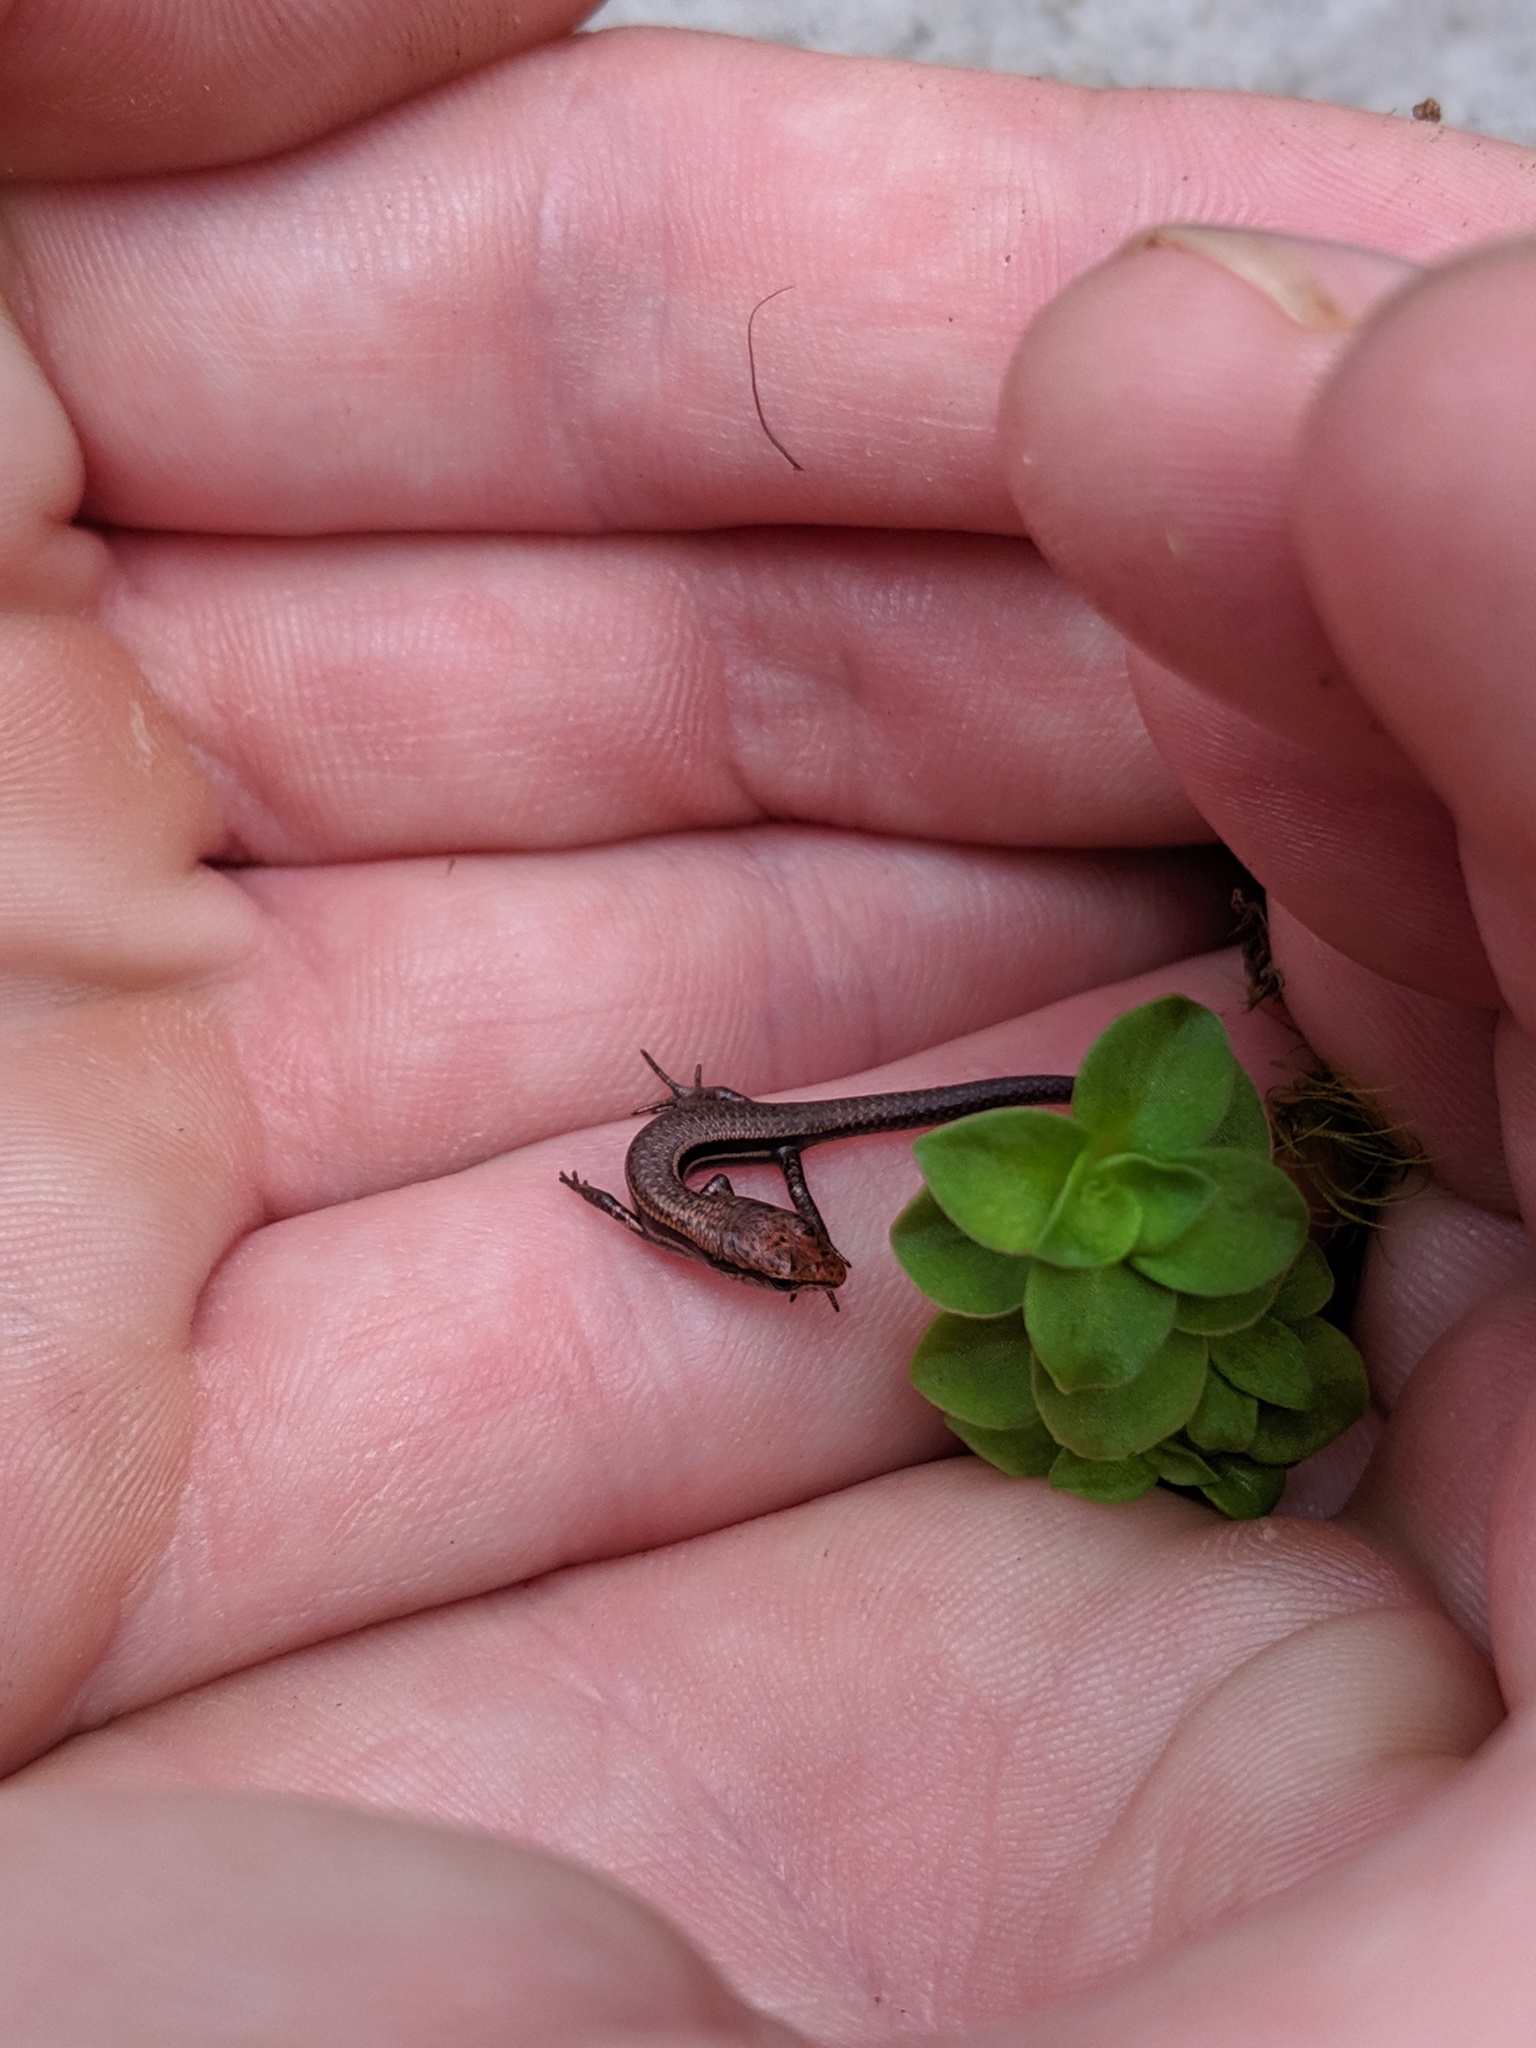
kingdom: Animalia
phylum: Chordata
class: Squamata
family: Scincidae
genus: Lampropholis
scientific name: Lampropholis delicata
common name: Plague skink
